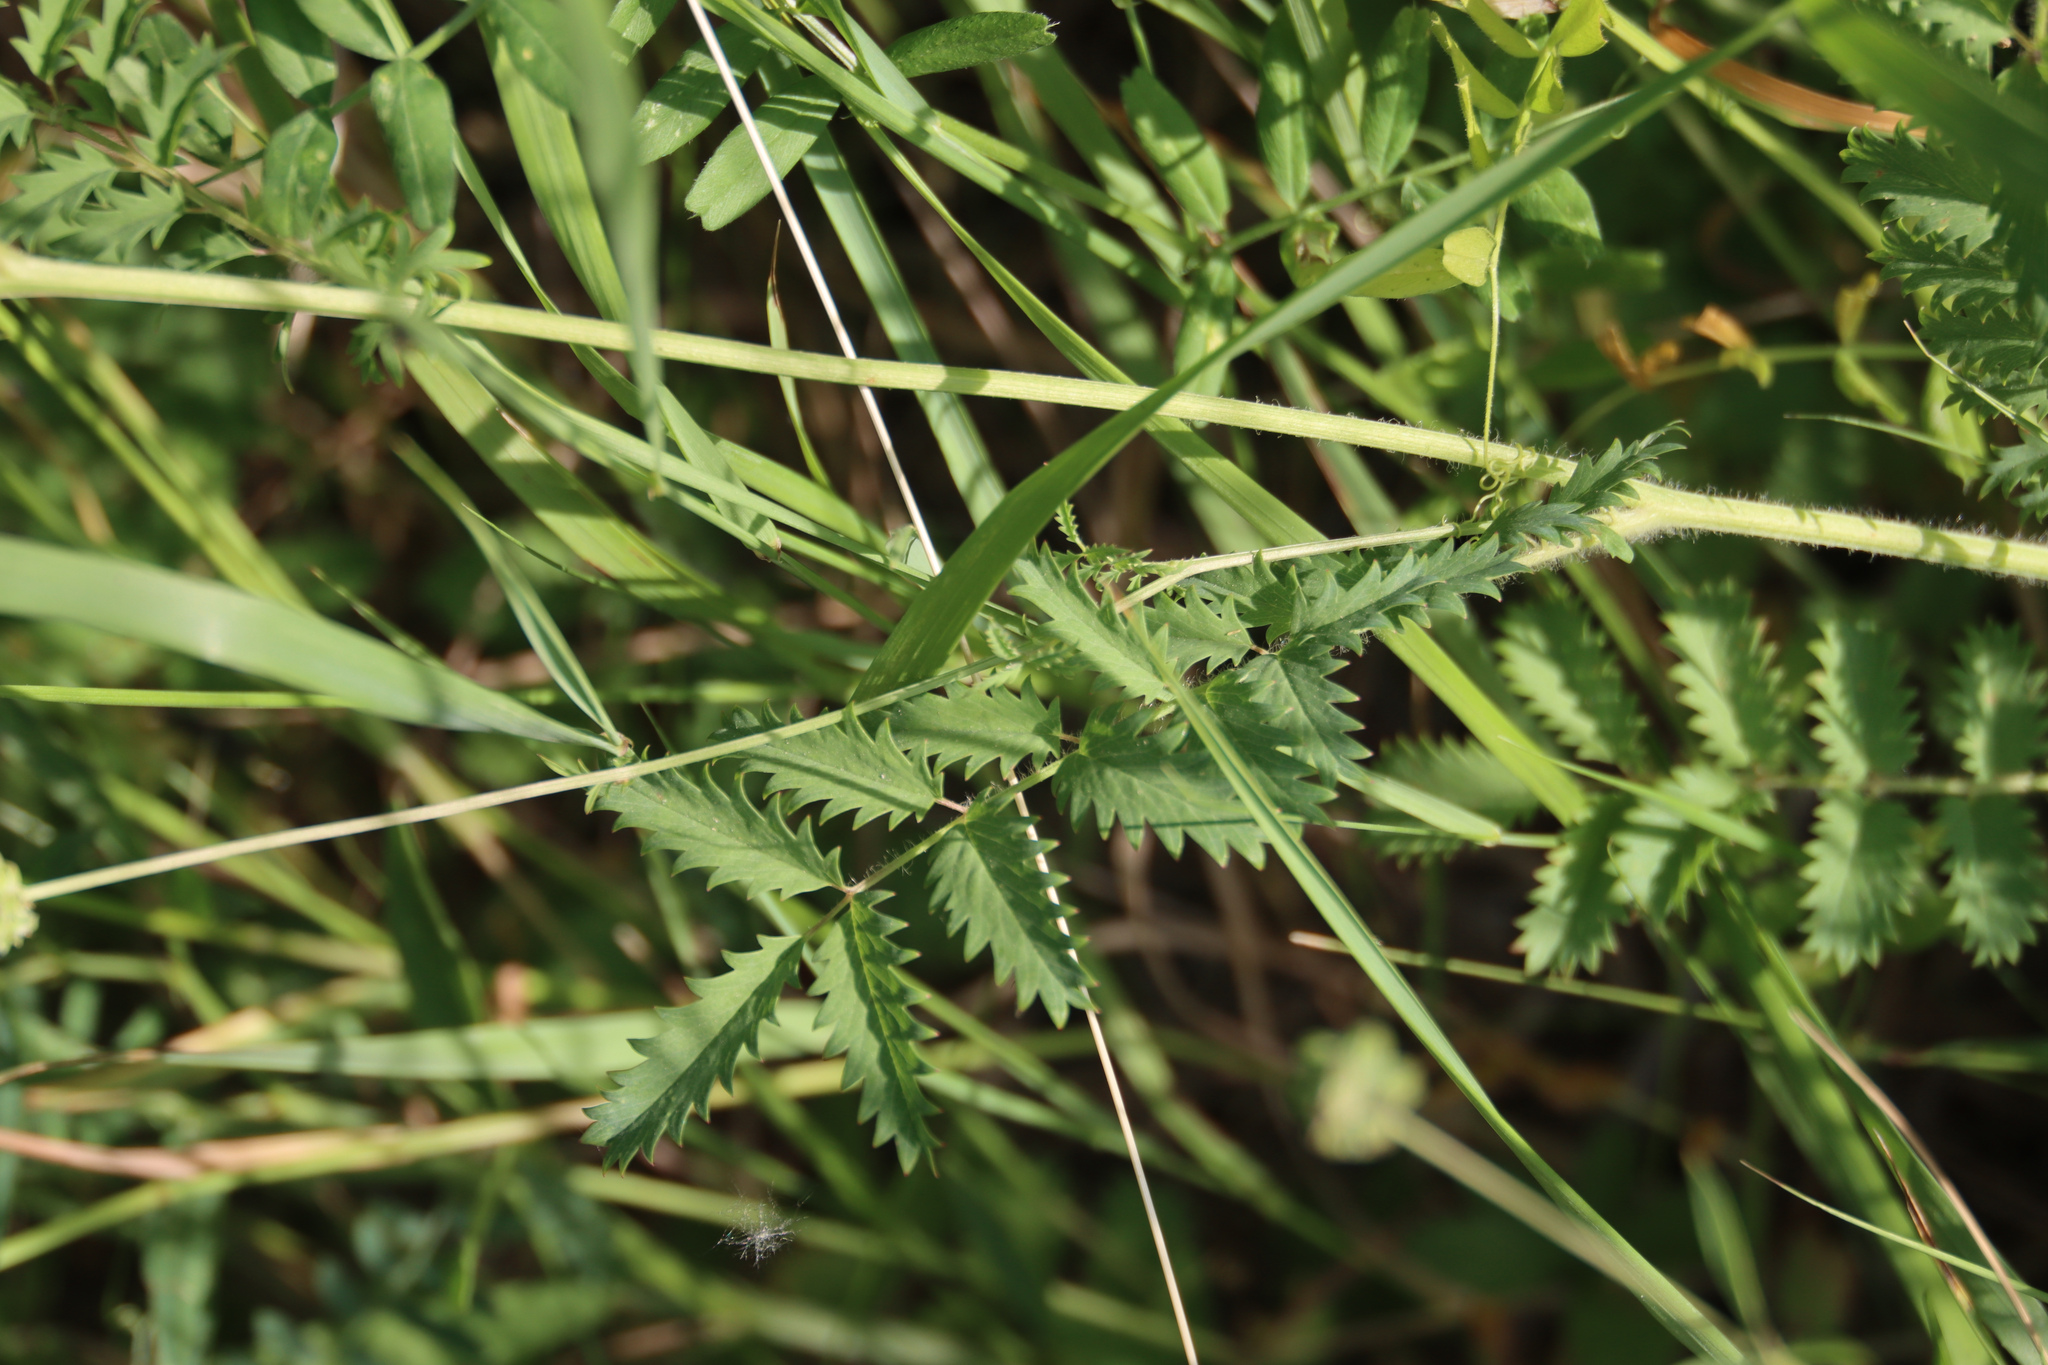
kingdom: Plantae
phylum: Tracheophyta
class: Magnoliopsida
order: Rosales
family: Rosaceae
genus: Poterium
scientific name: Poterium sanguisorba
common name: Salad burnet
